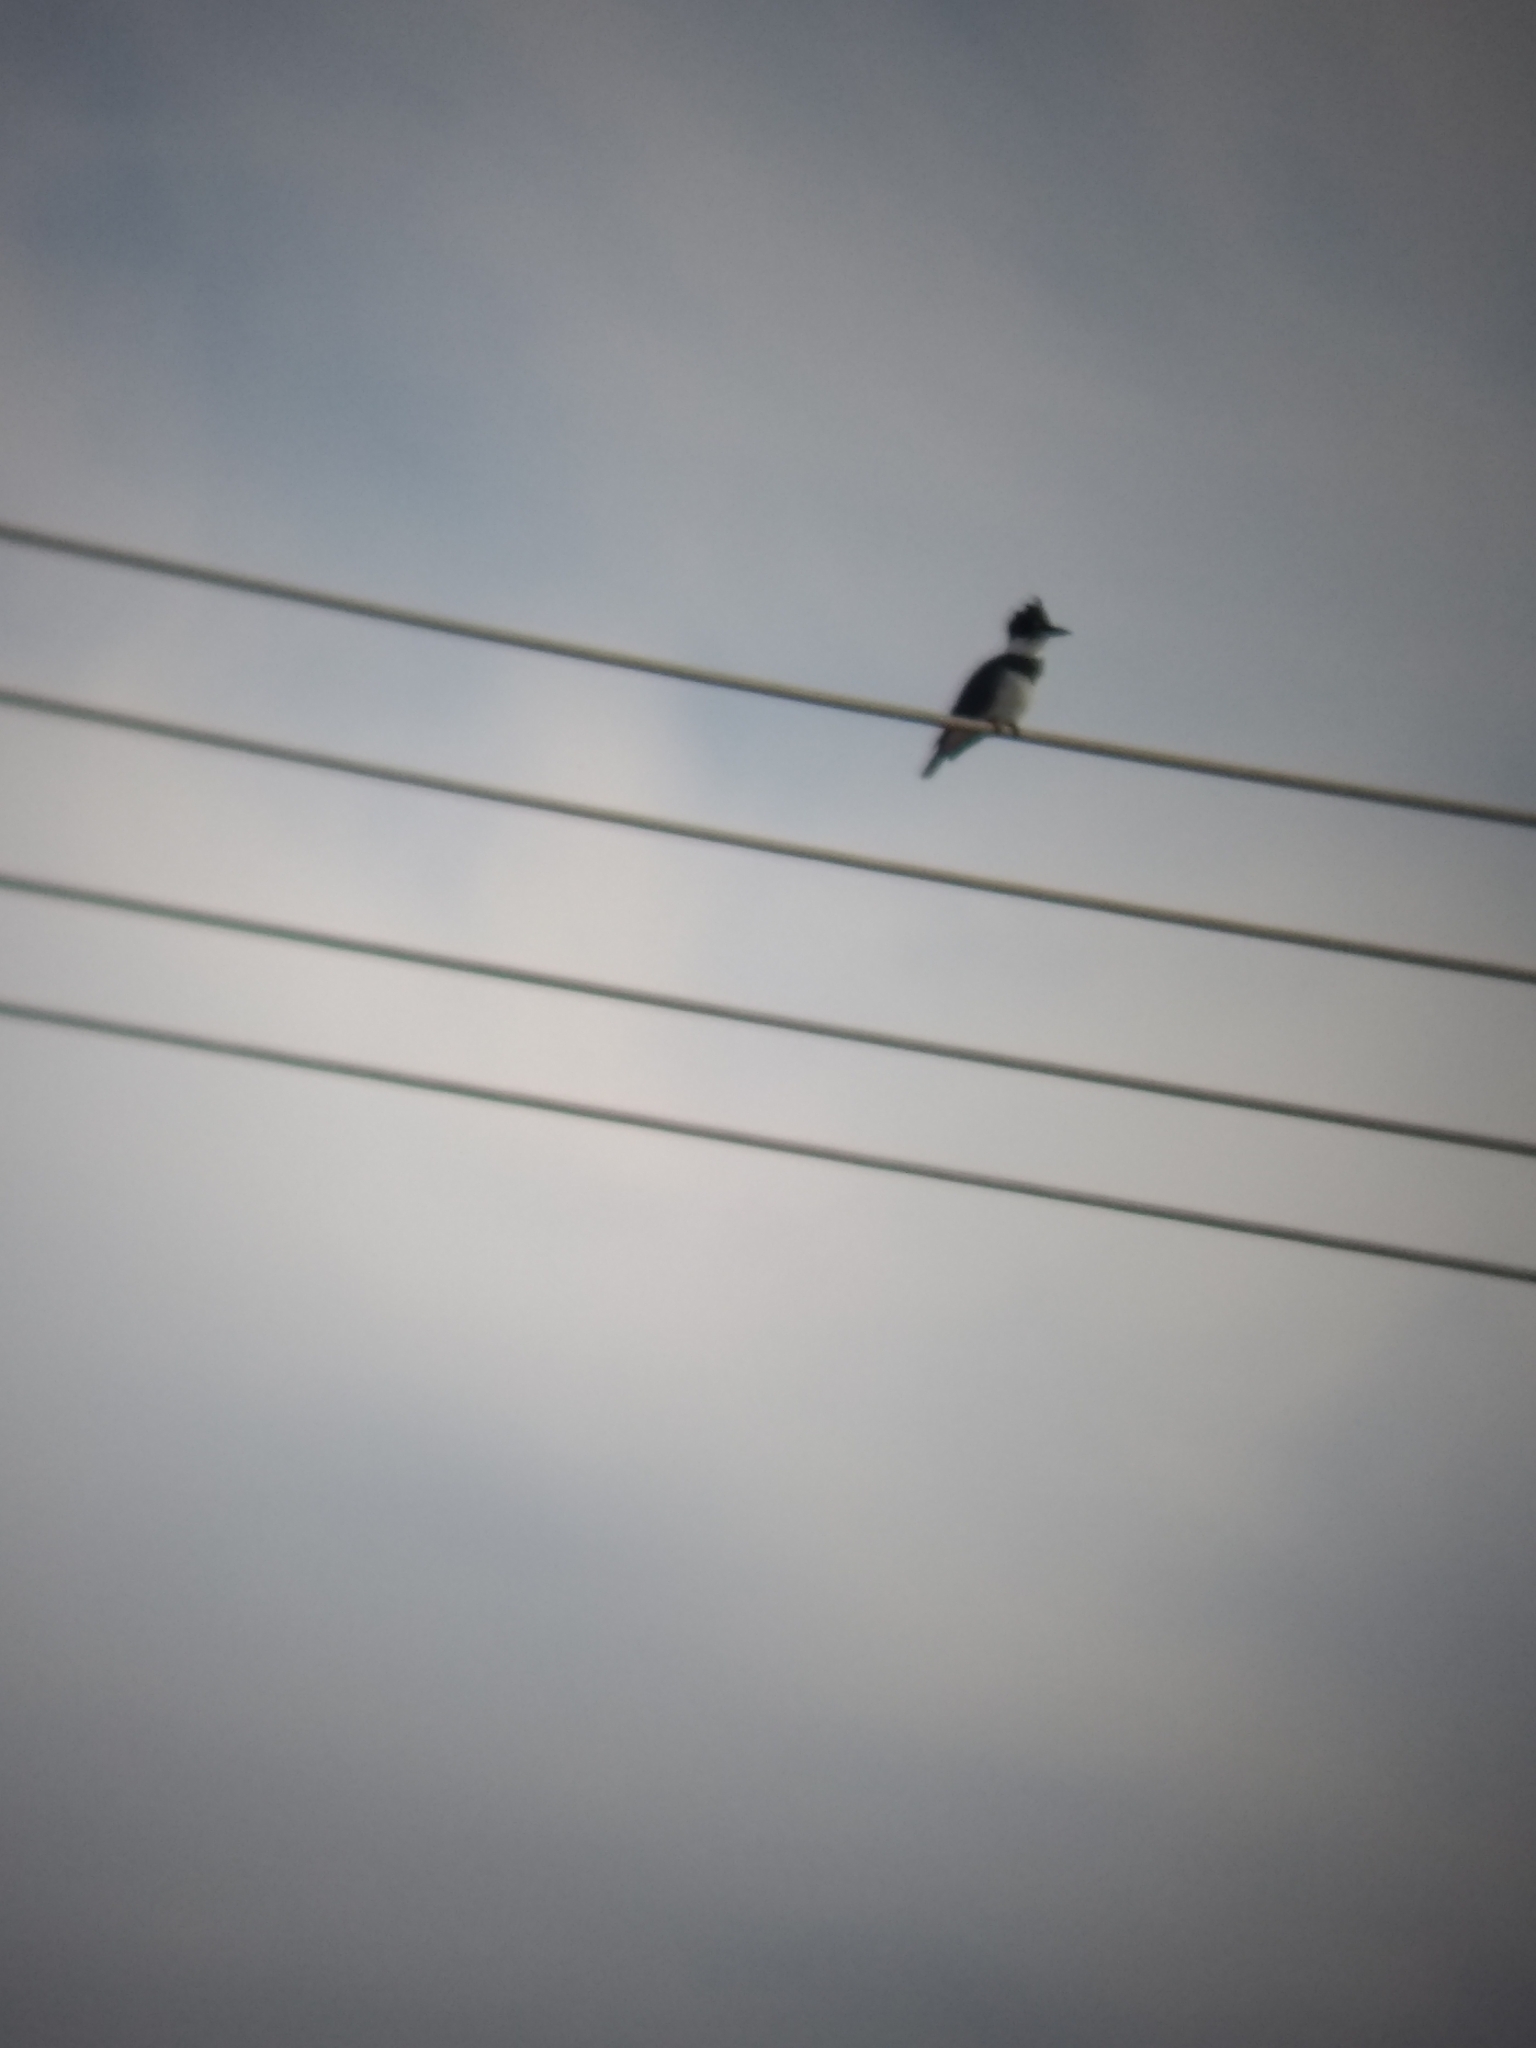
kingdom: Animalia
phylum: Chordata
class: Aves
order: Coraciiformes
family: Alcedinidae
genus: Megaceryle
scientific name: Megaceryle alcyon
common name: Belted kingfisher
